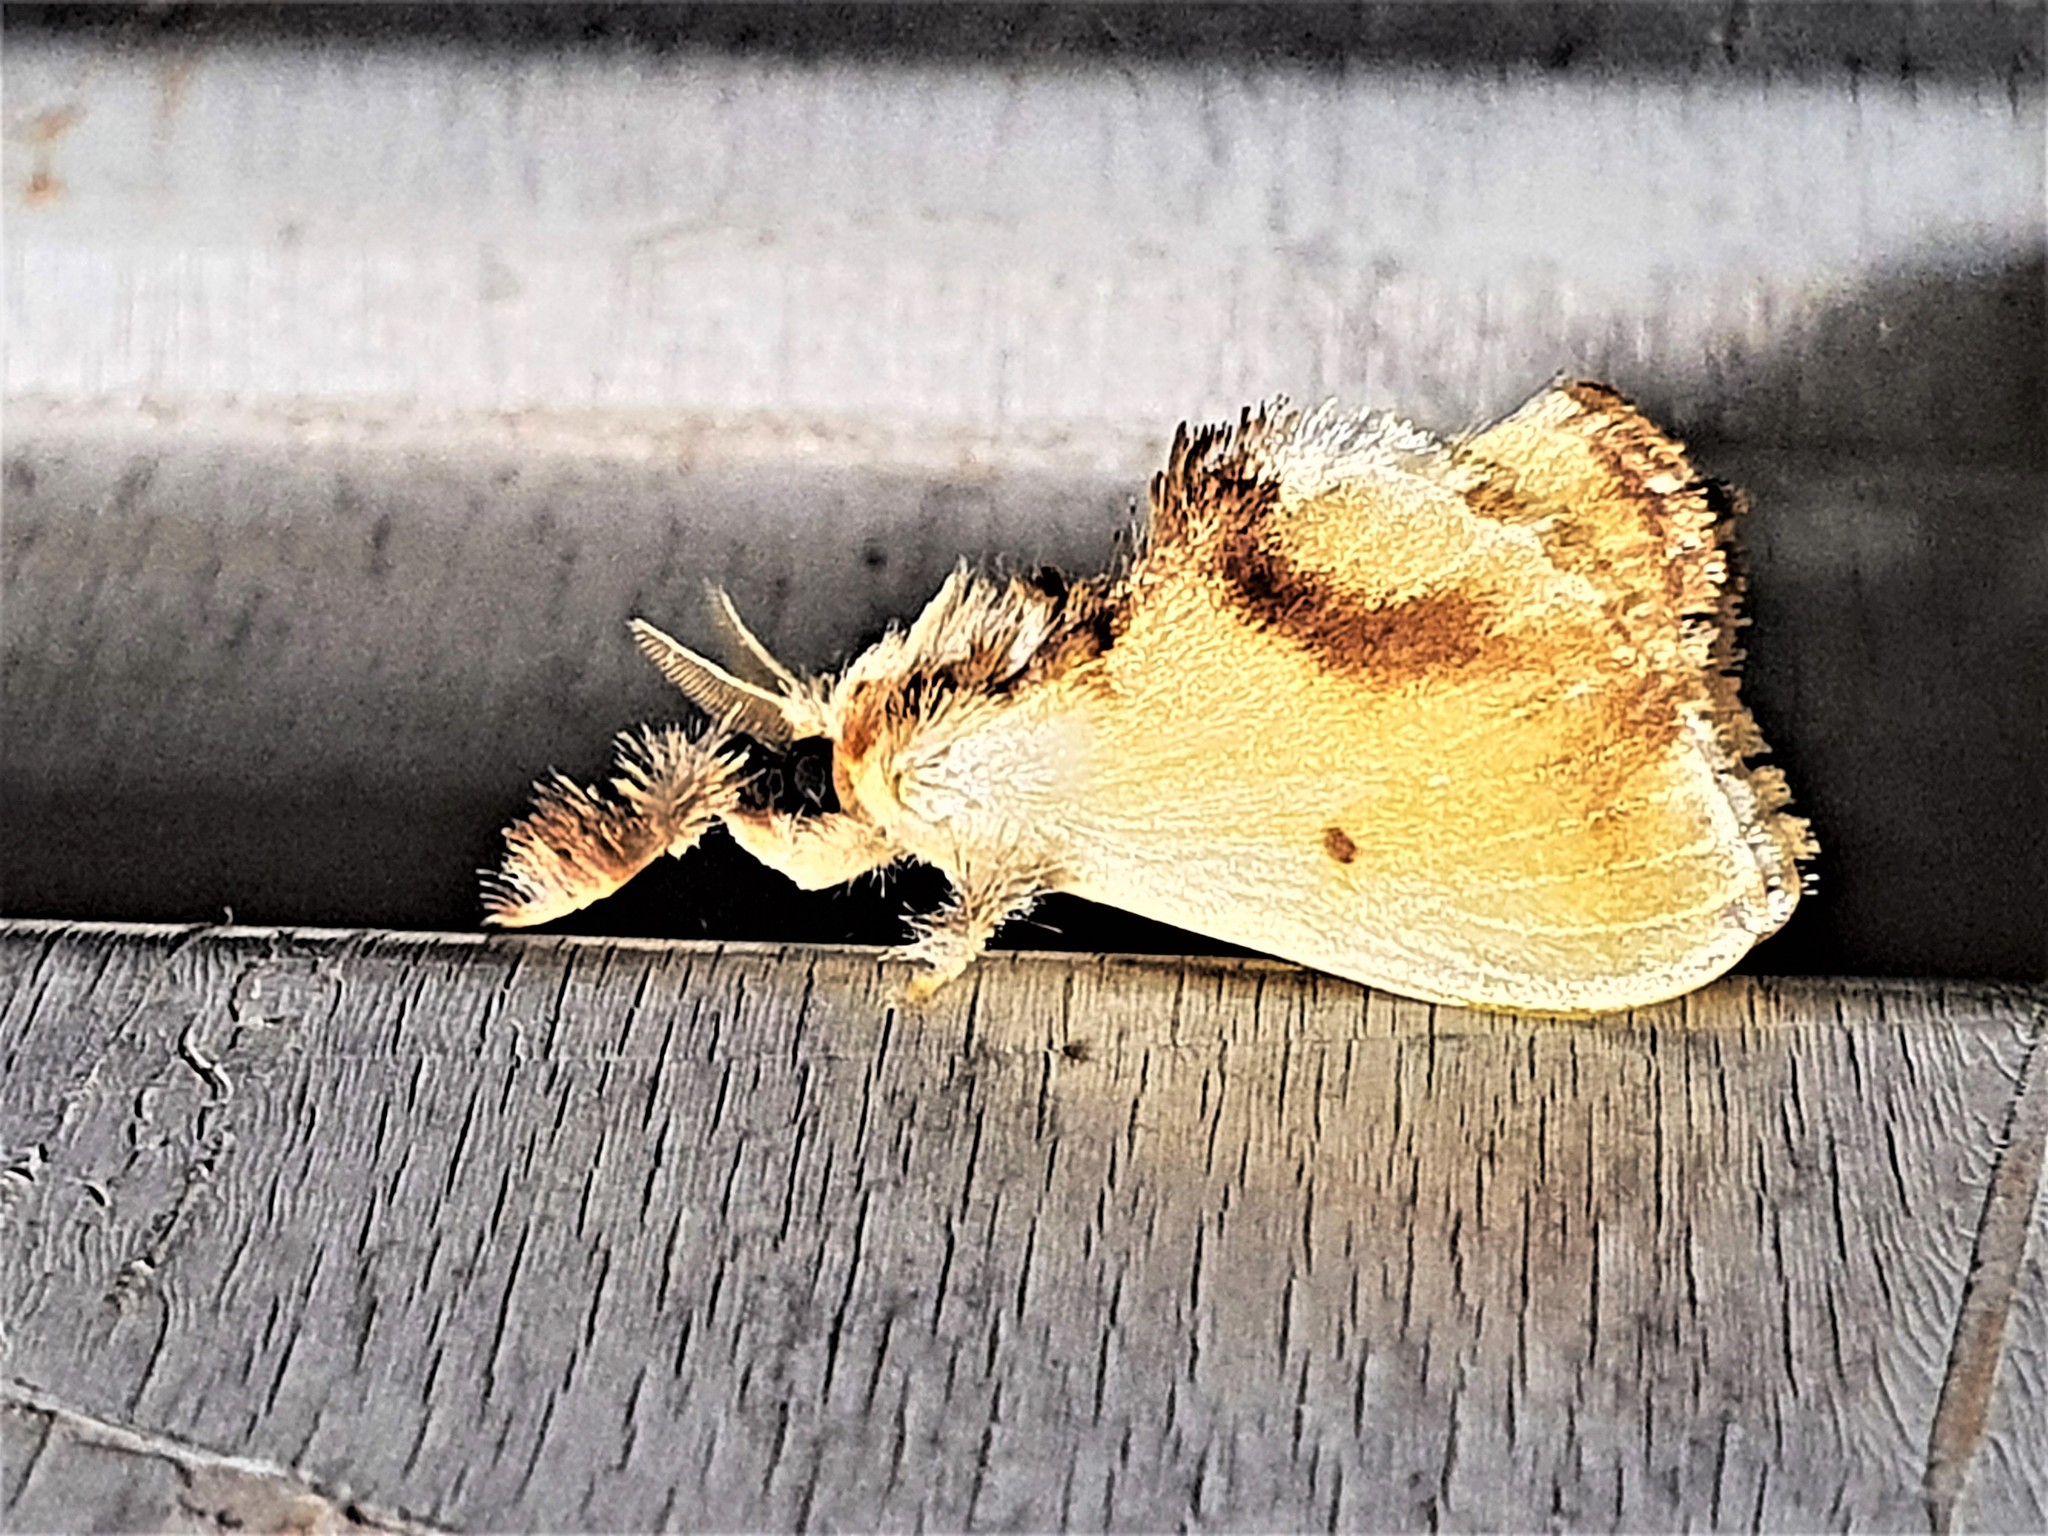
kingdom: Animalia
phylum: Arthropoda
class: Insecta
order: Lepidoptera
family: Dalceridae
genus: Acraga
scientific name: Acraga leberna
